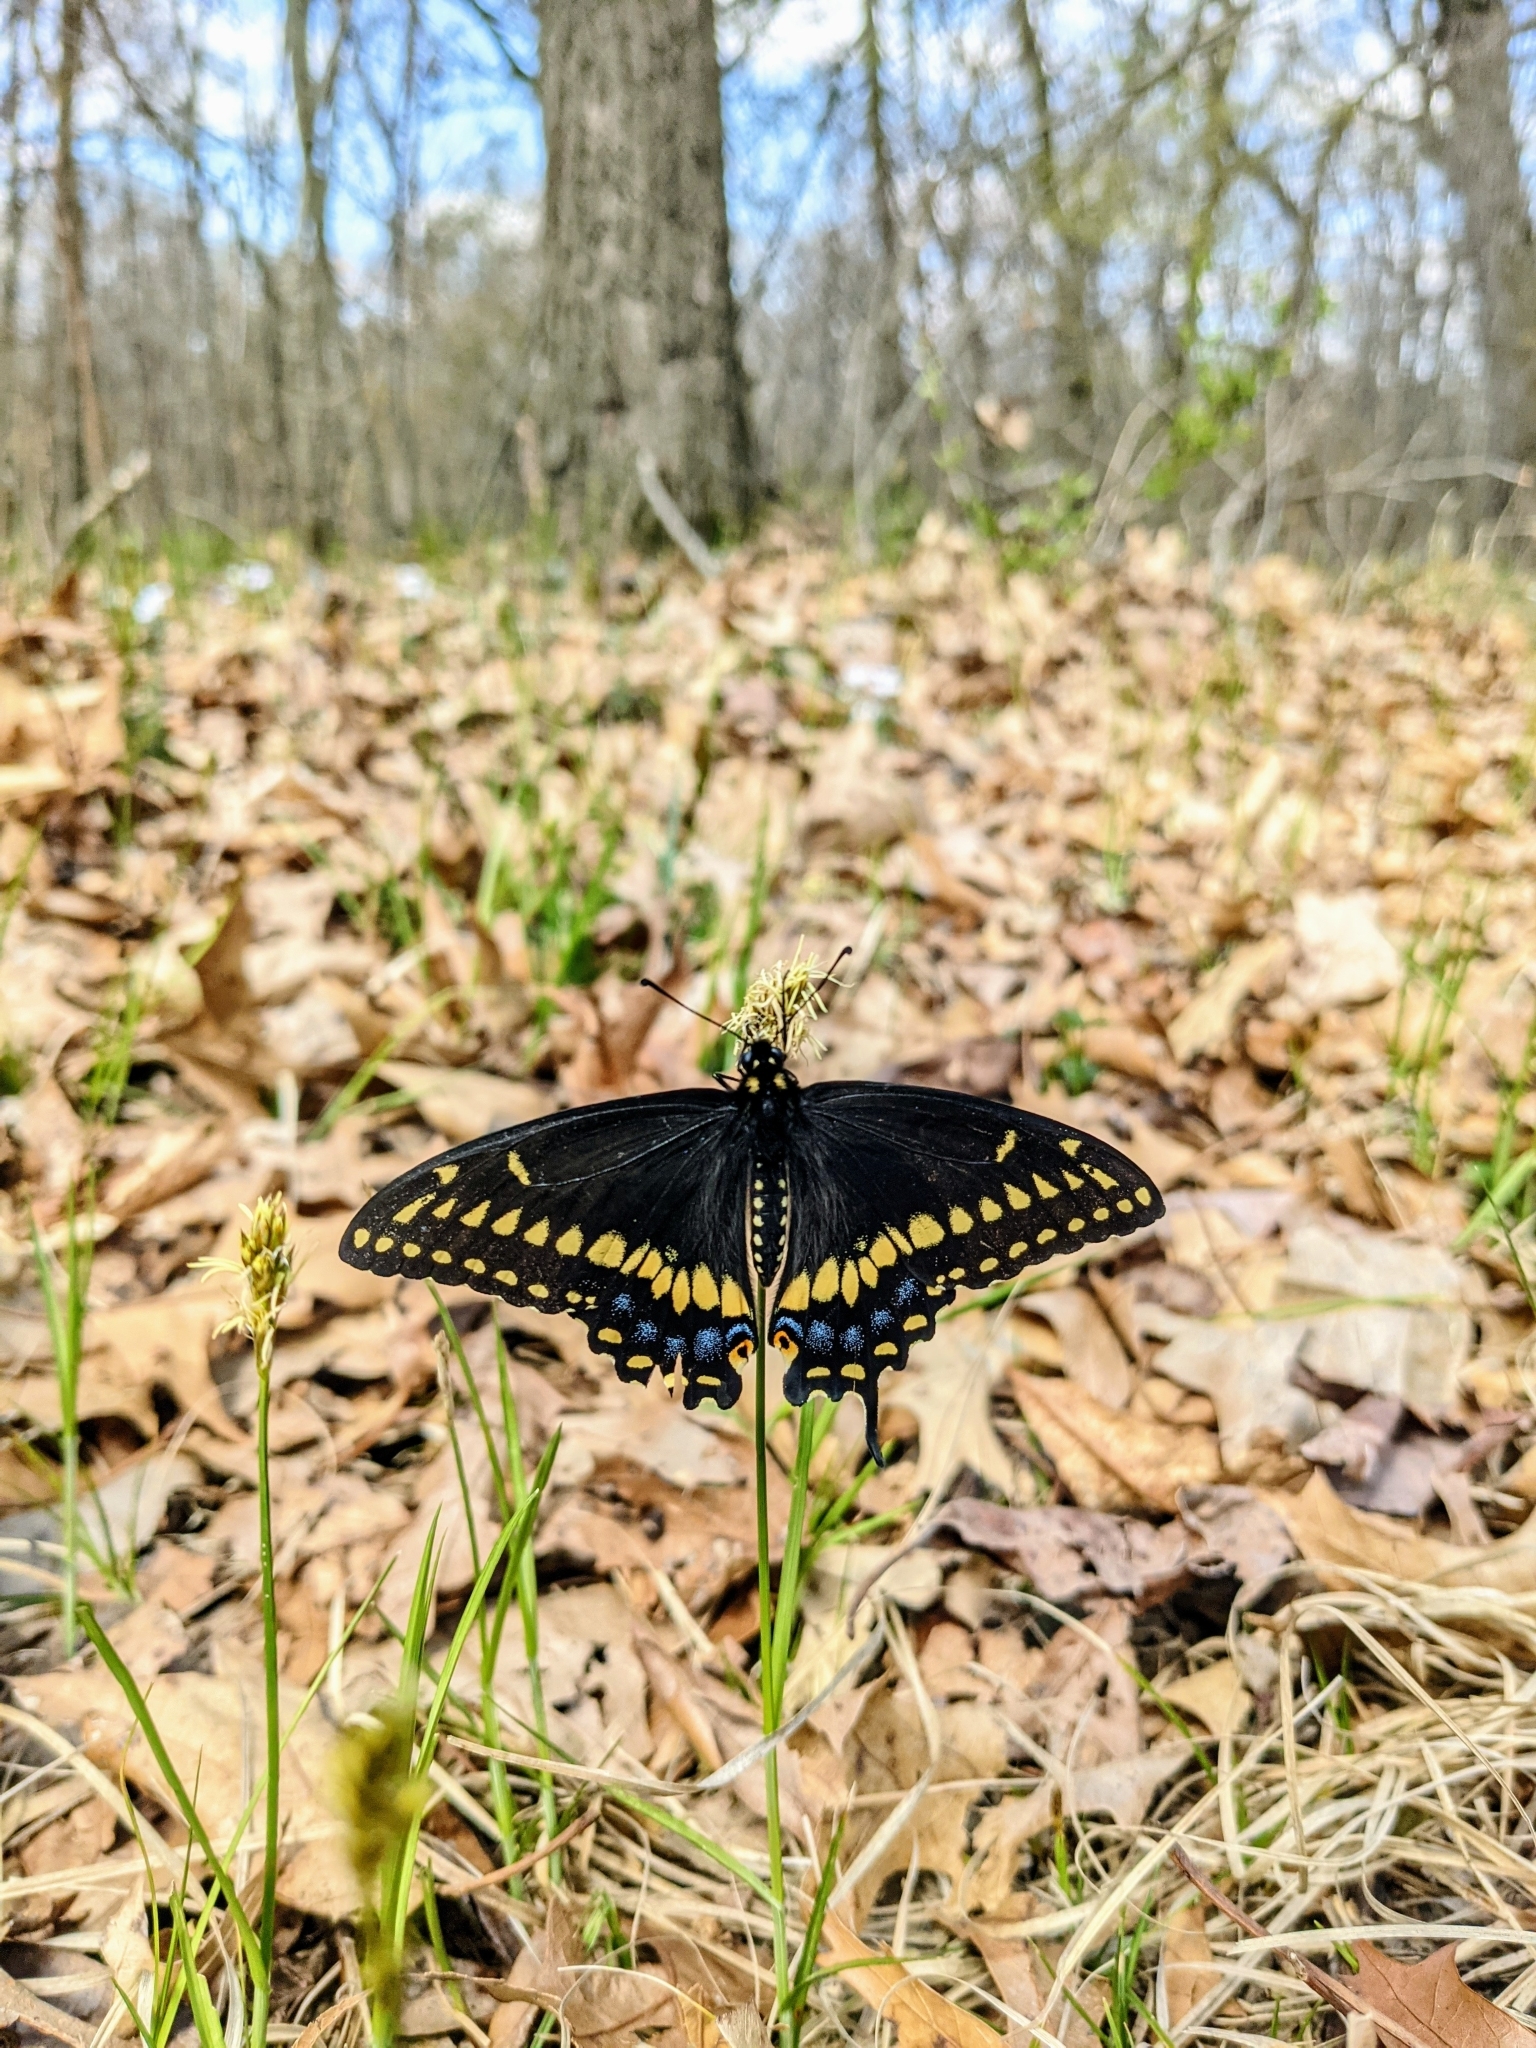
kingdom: Animalia
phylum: Arthropoda
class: Insecta
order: Lepidoptera
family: Papilionidae
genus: Papilio
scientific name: Papilio polyxenes
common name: Black swallowtail
